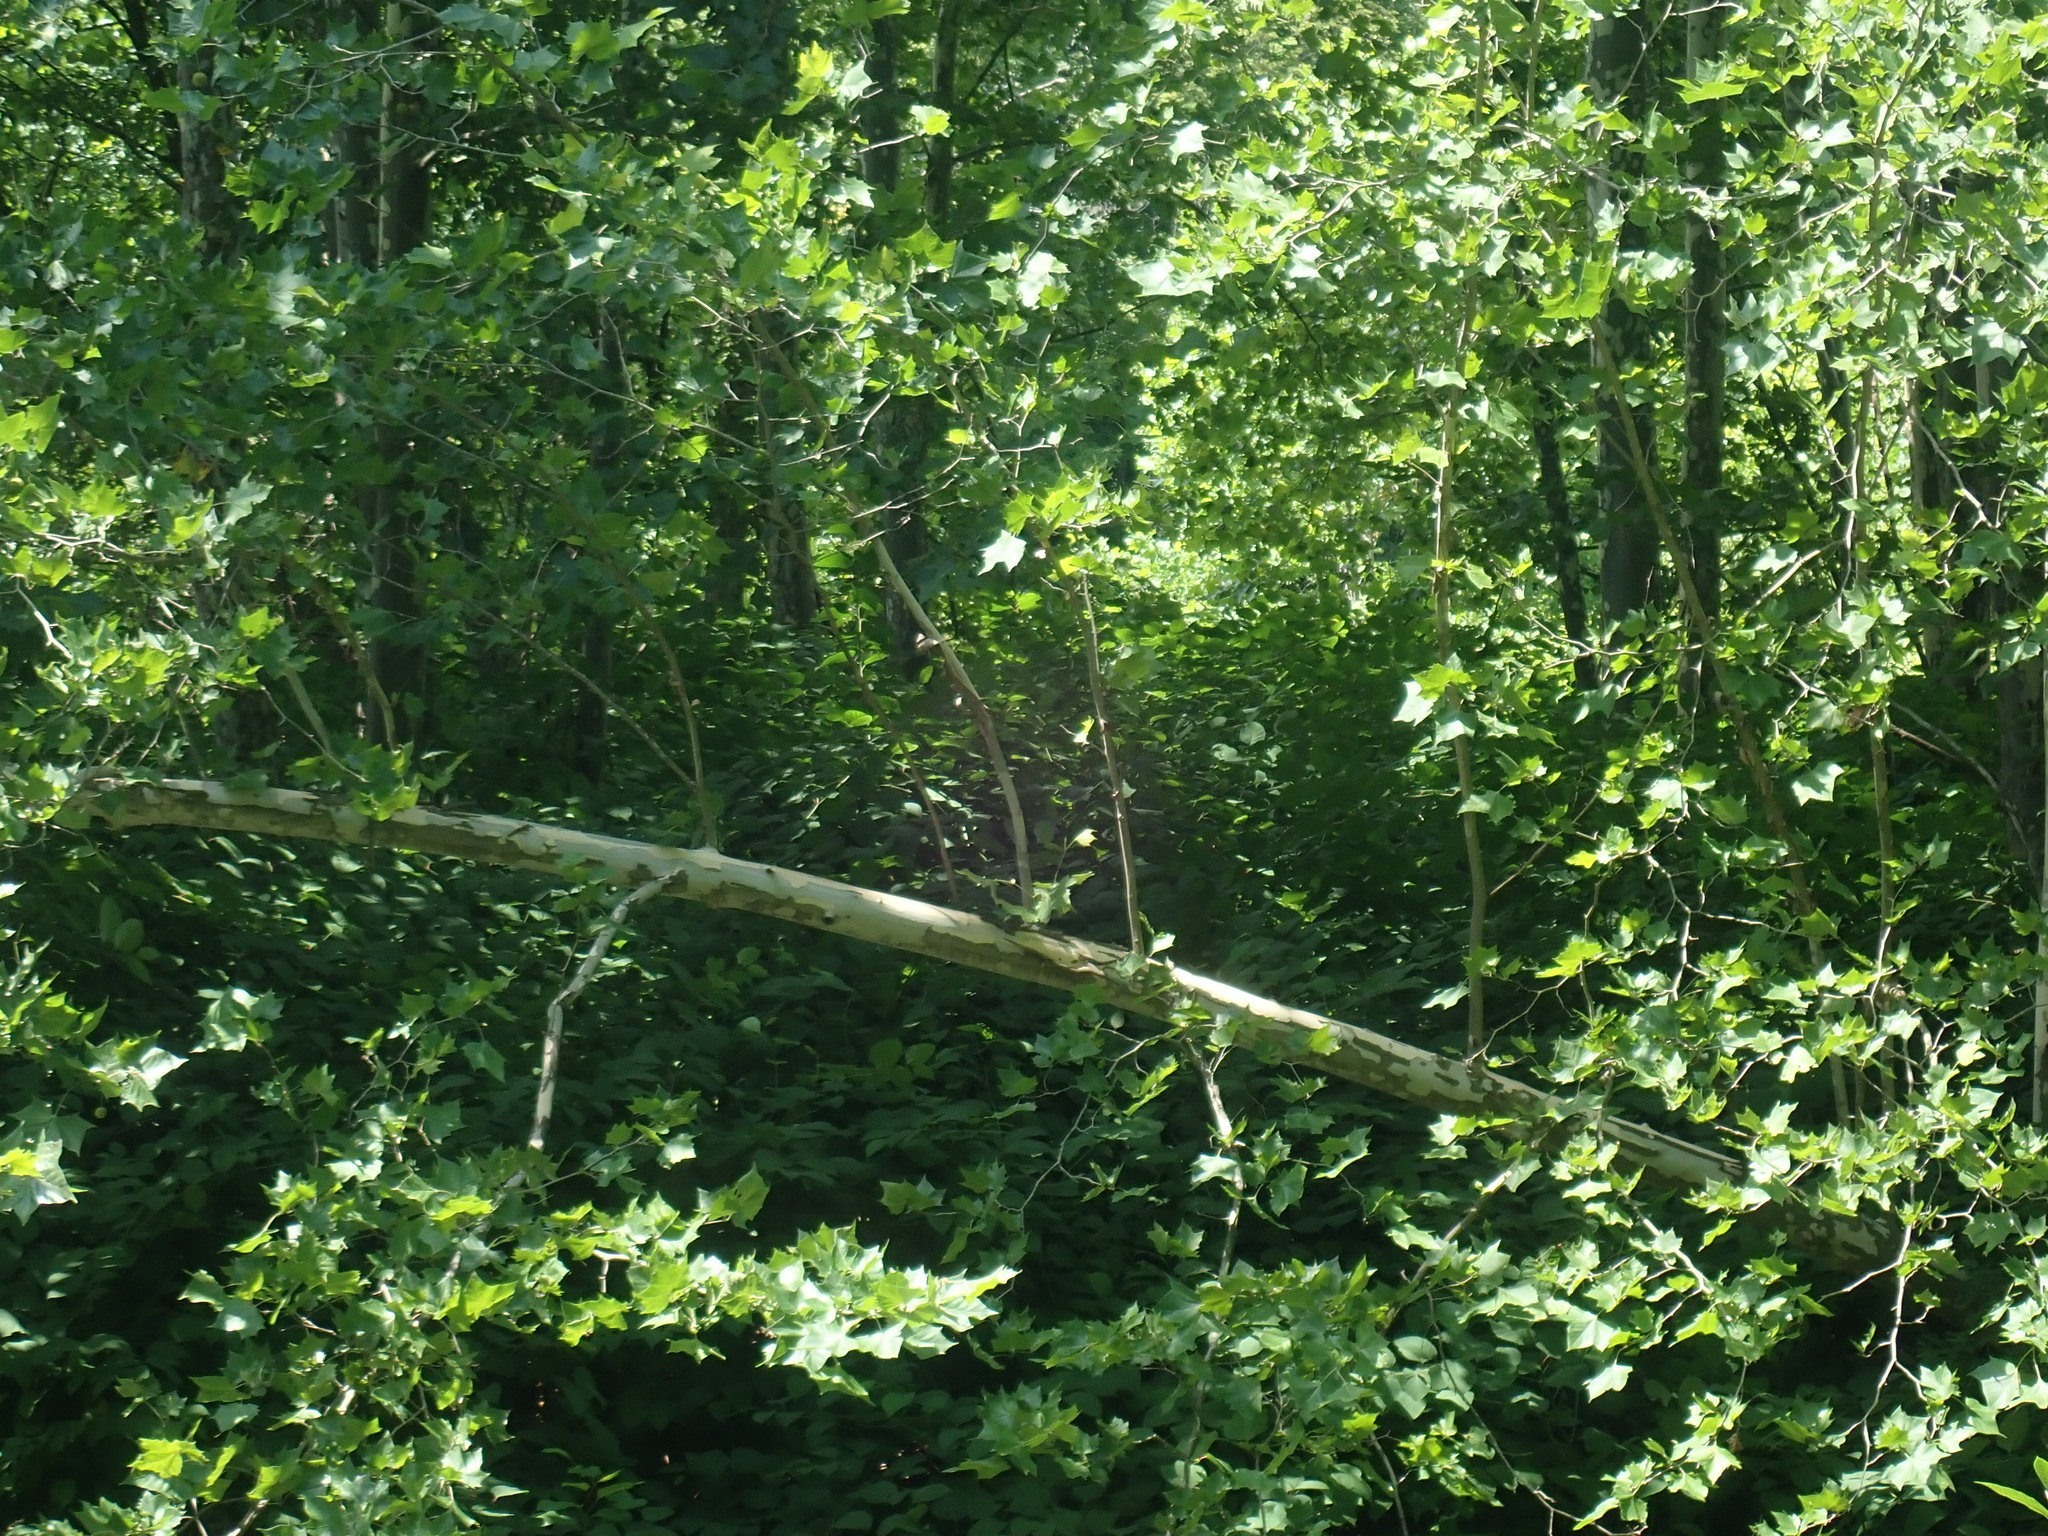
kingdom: Plantae
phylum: Tracheophyta
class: Magnoliopsida
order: Proteales
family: Platanaceae
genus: Platanus
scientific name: Platanus occidentalis
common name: American sycamore
